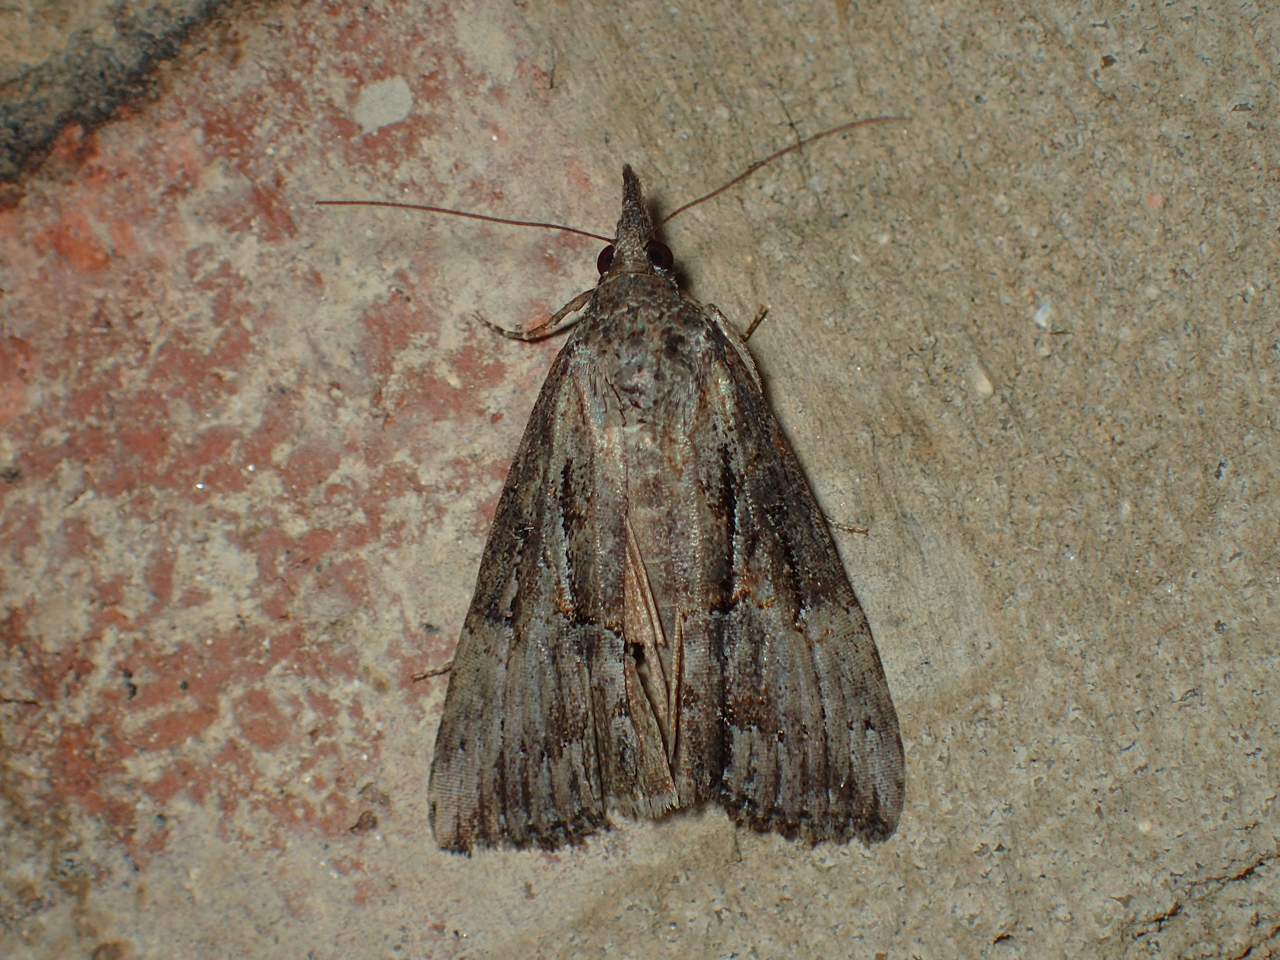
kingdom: Animalia
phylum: Arthropoda
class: Insecta
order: Lepidoptera
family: Erebidae
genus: Hypena
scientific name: Hypena scabra
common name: Green cloverworm
